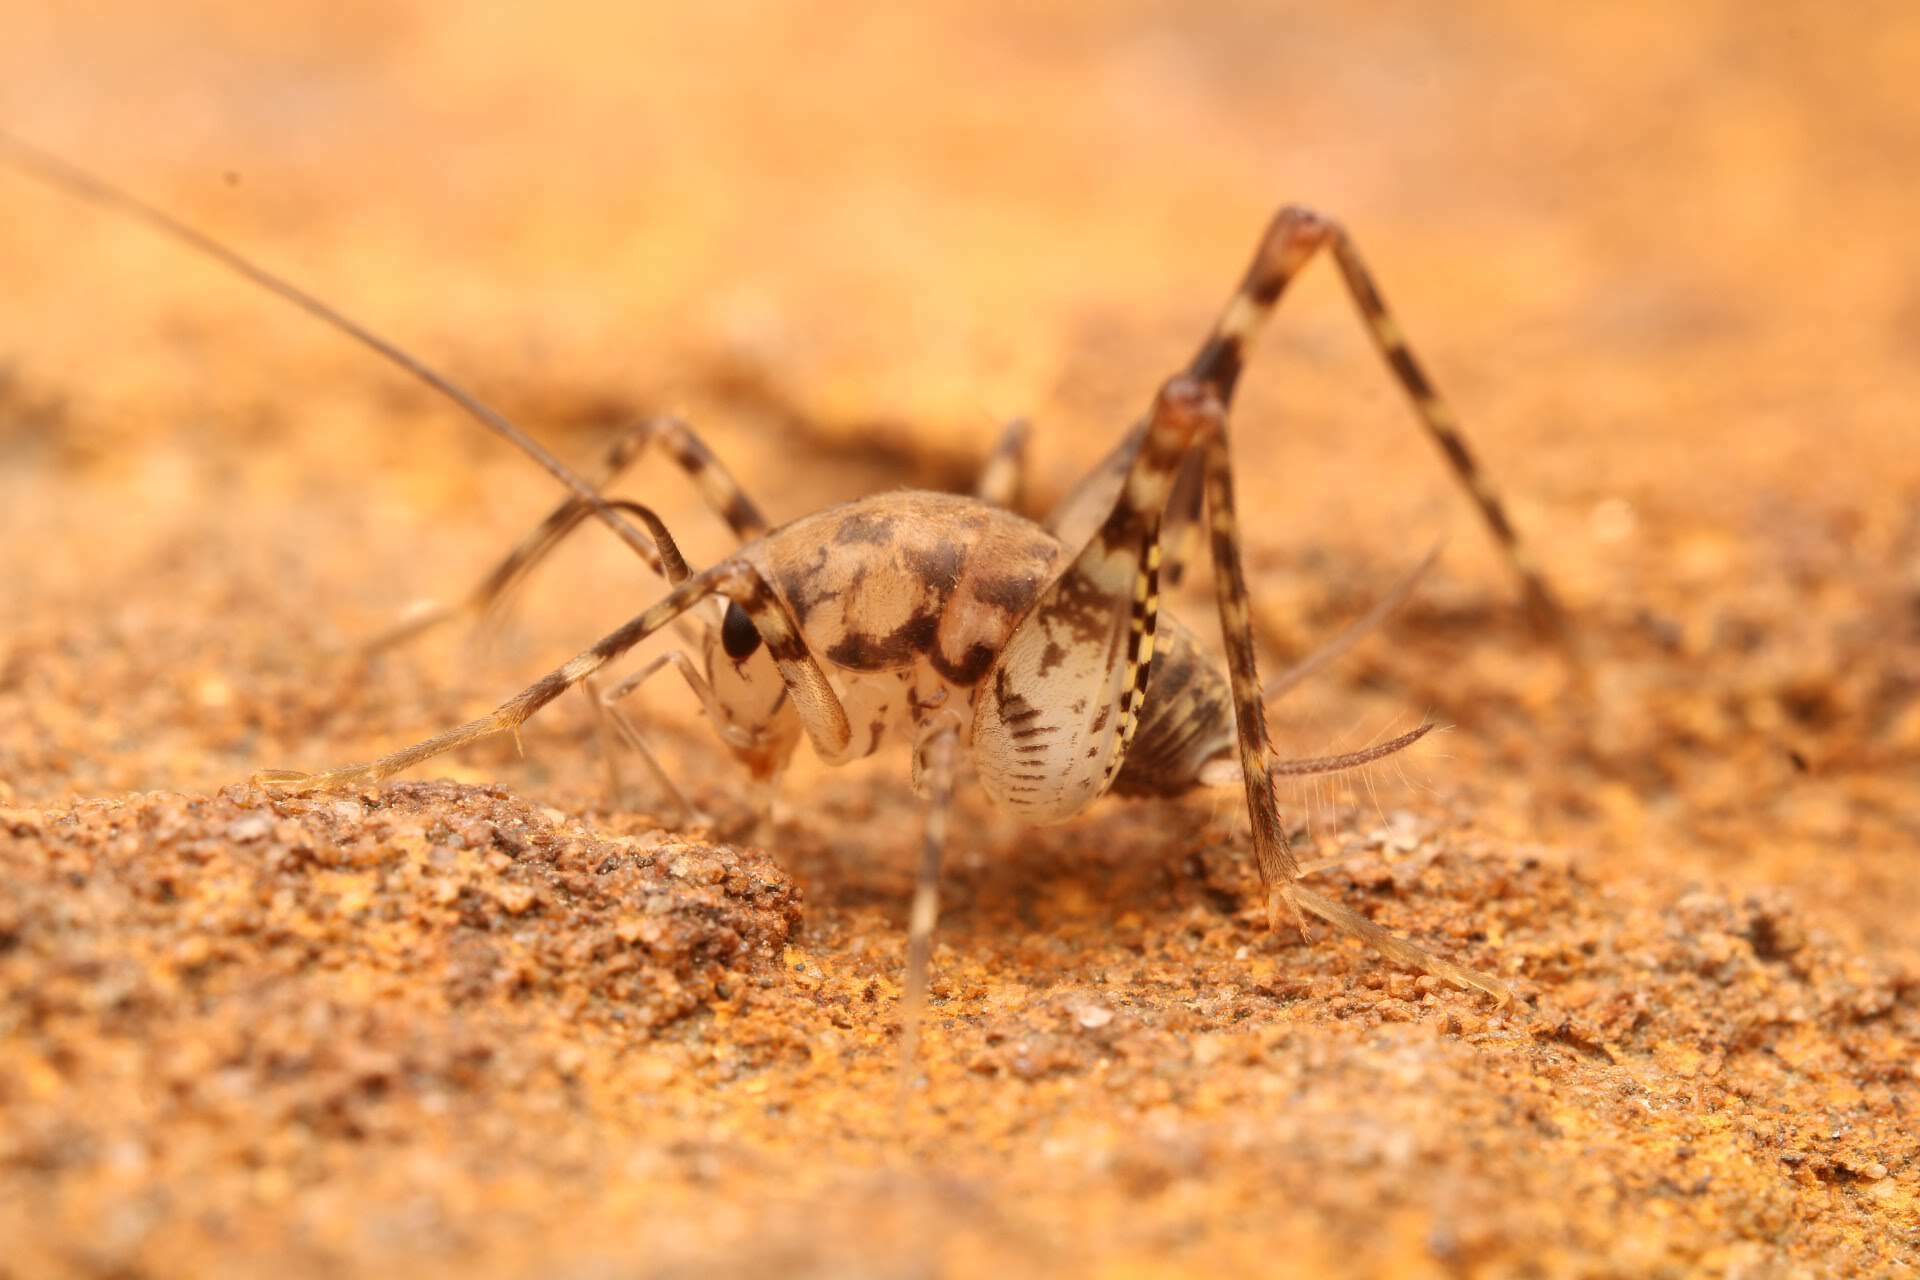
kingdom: Animalia
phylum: Arthropoda
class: Insecta
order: Orthoptera
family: Rhaphidophoridae
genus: Tachycines
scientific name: Tachycines asynamorus
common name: Greenhouse camel cricket
